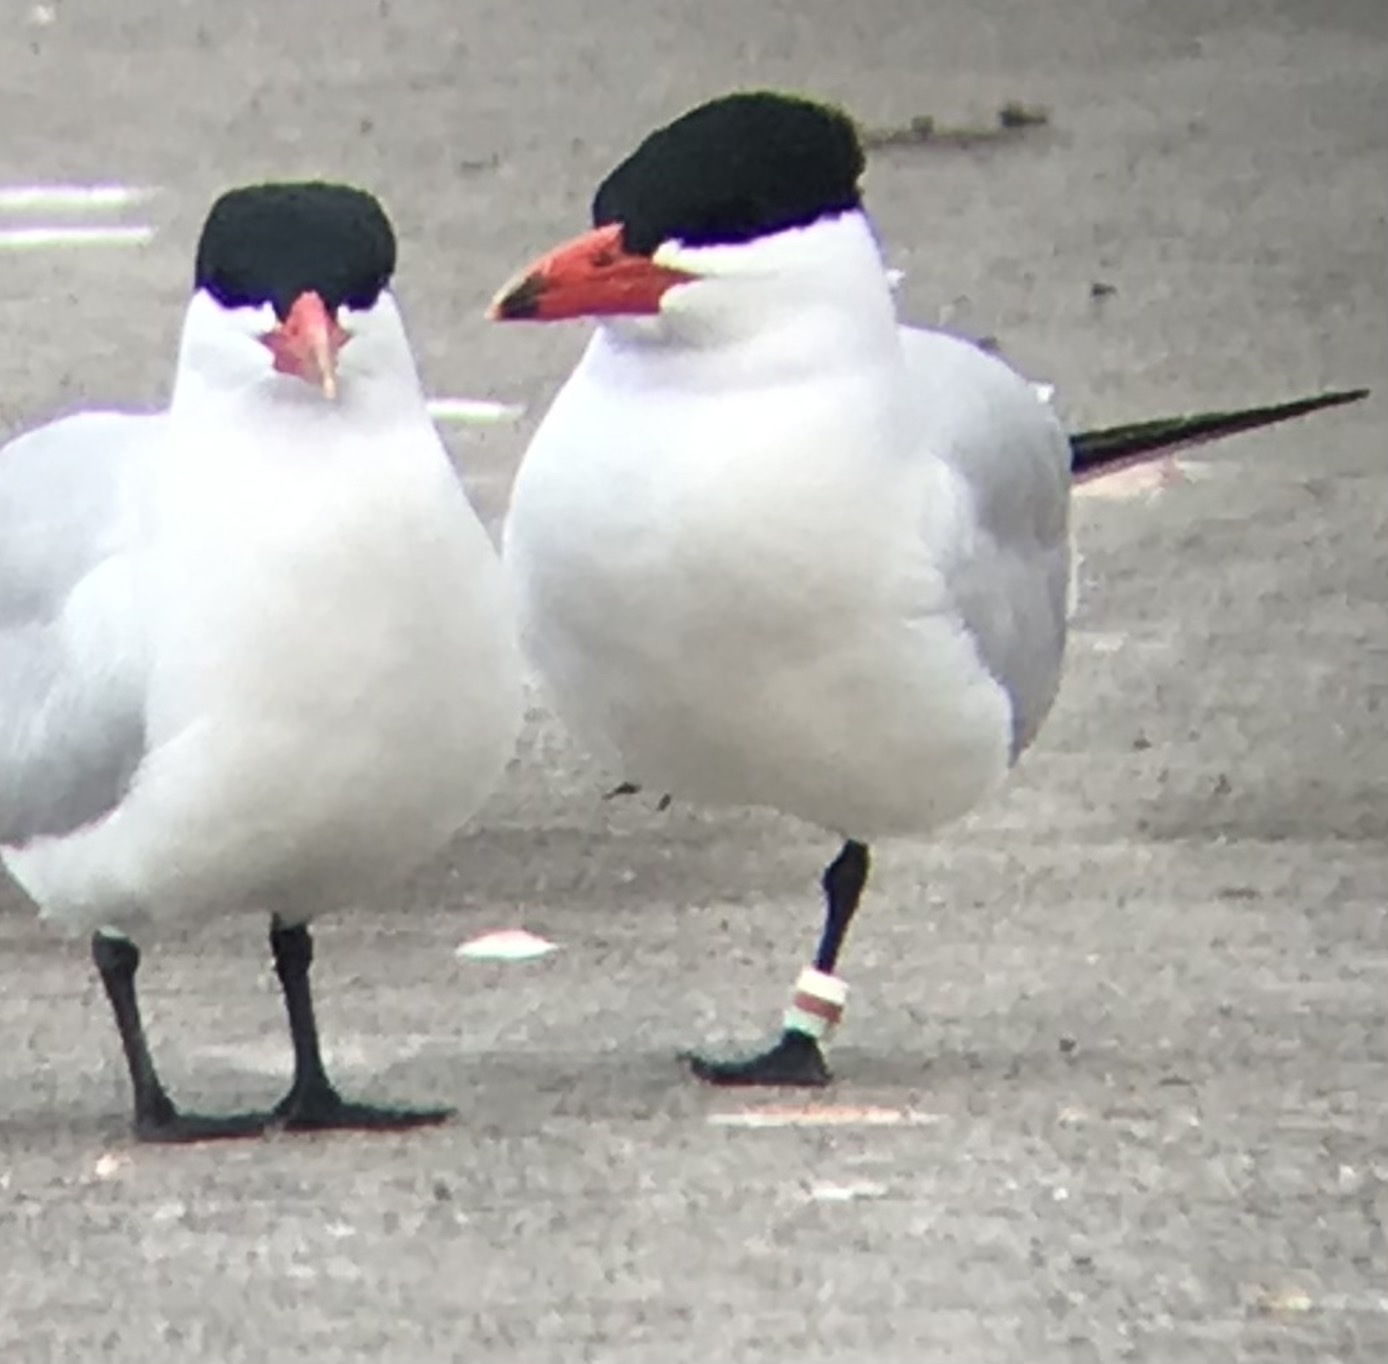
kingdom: Animalia
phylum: Chordata
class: Aves
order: Charadriiformes
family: Laridae
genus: Hydroprogne
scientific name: Hydroprogne caspia
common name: Caspian tern
